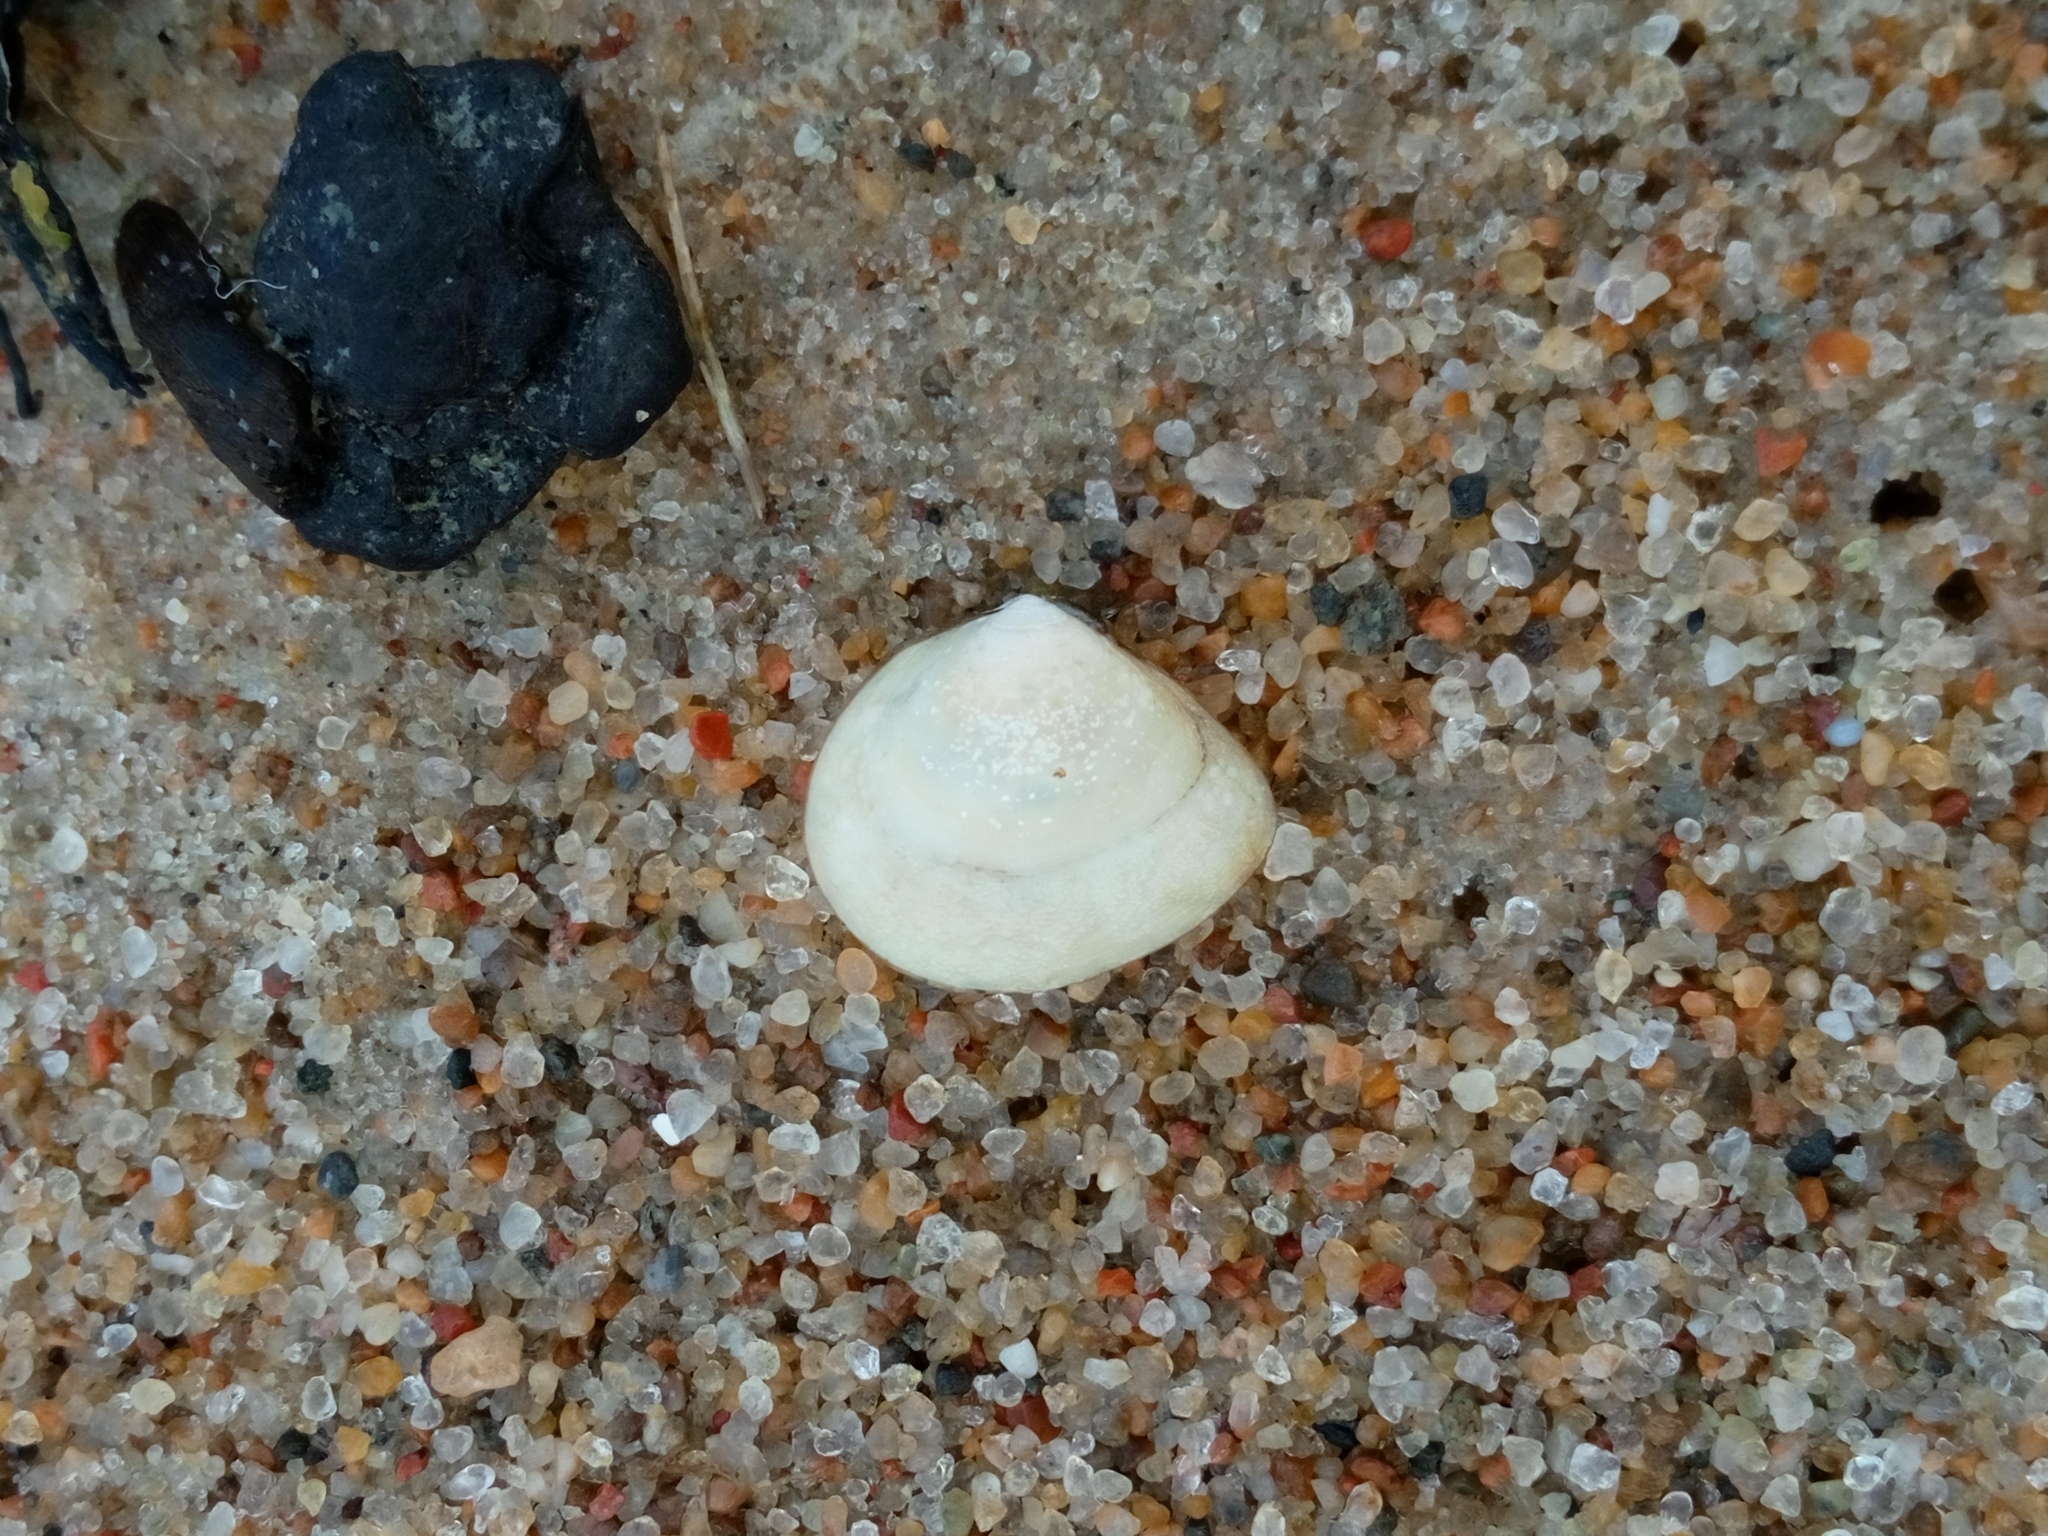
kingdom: Animalia
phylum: Mollusca
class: Bivalvia
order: Cardiida
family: Tellinidae
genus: Macoma
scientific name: Macoma balthica
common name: Baltic tellin
